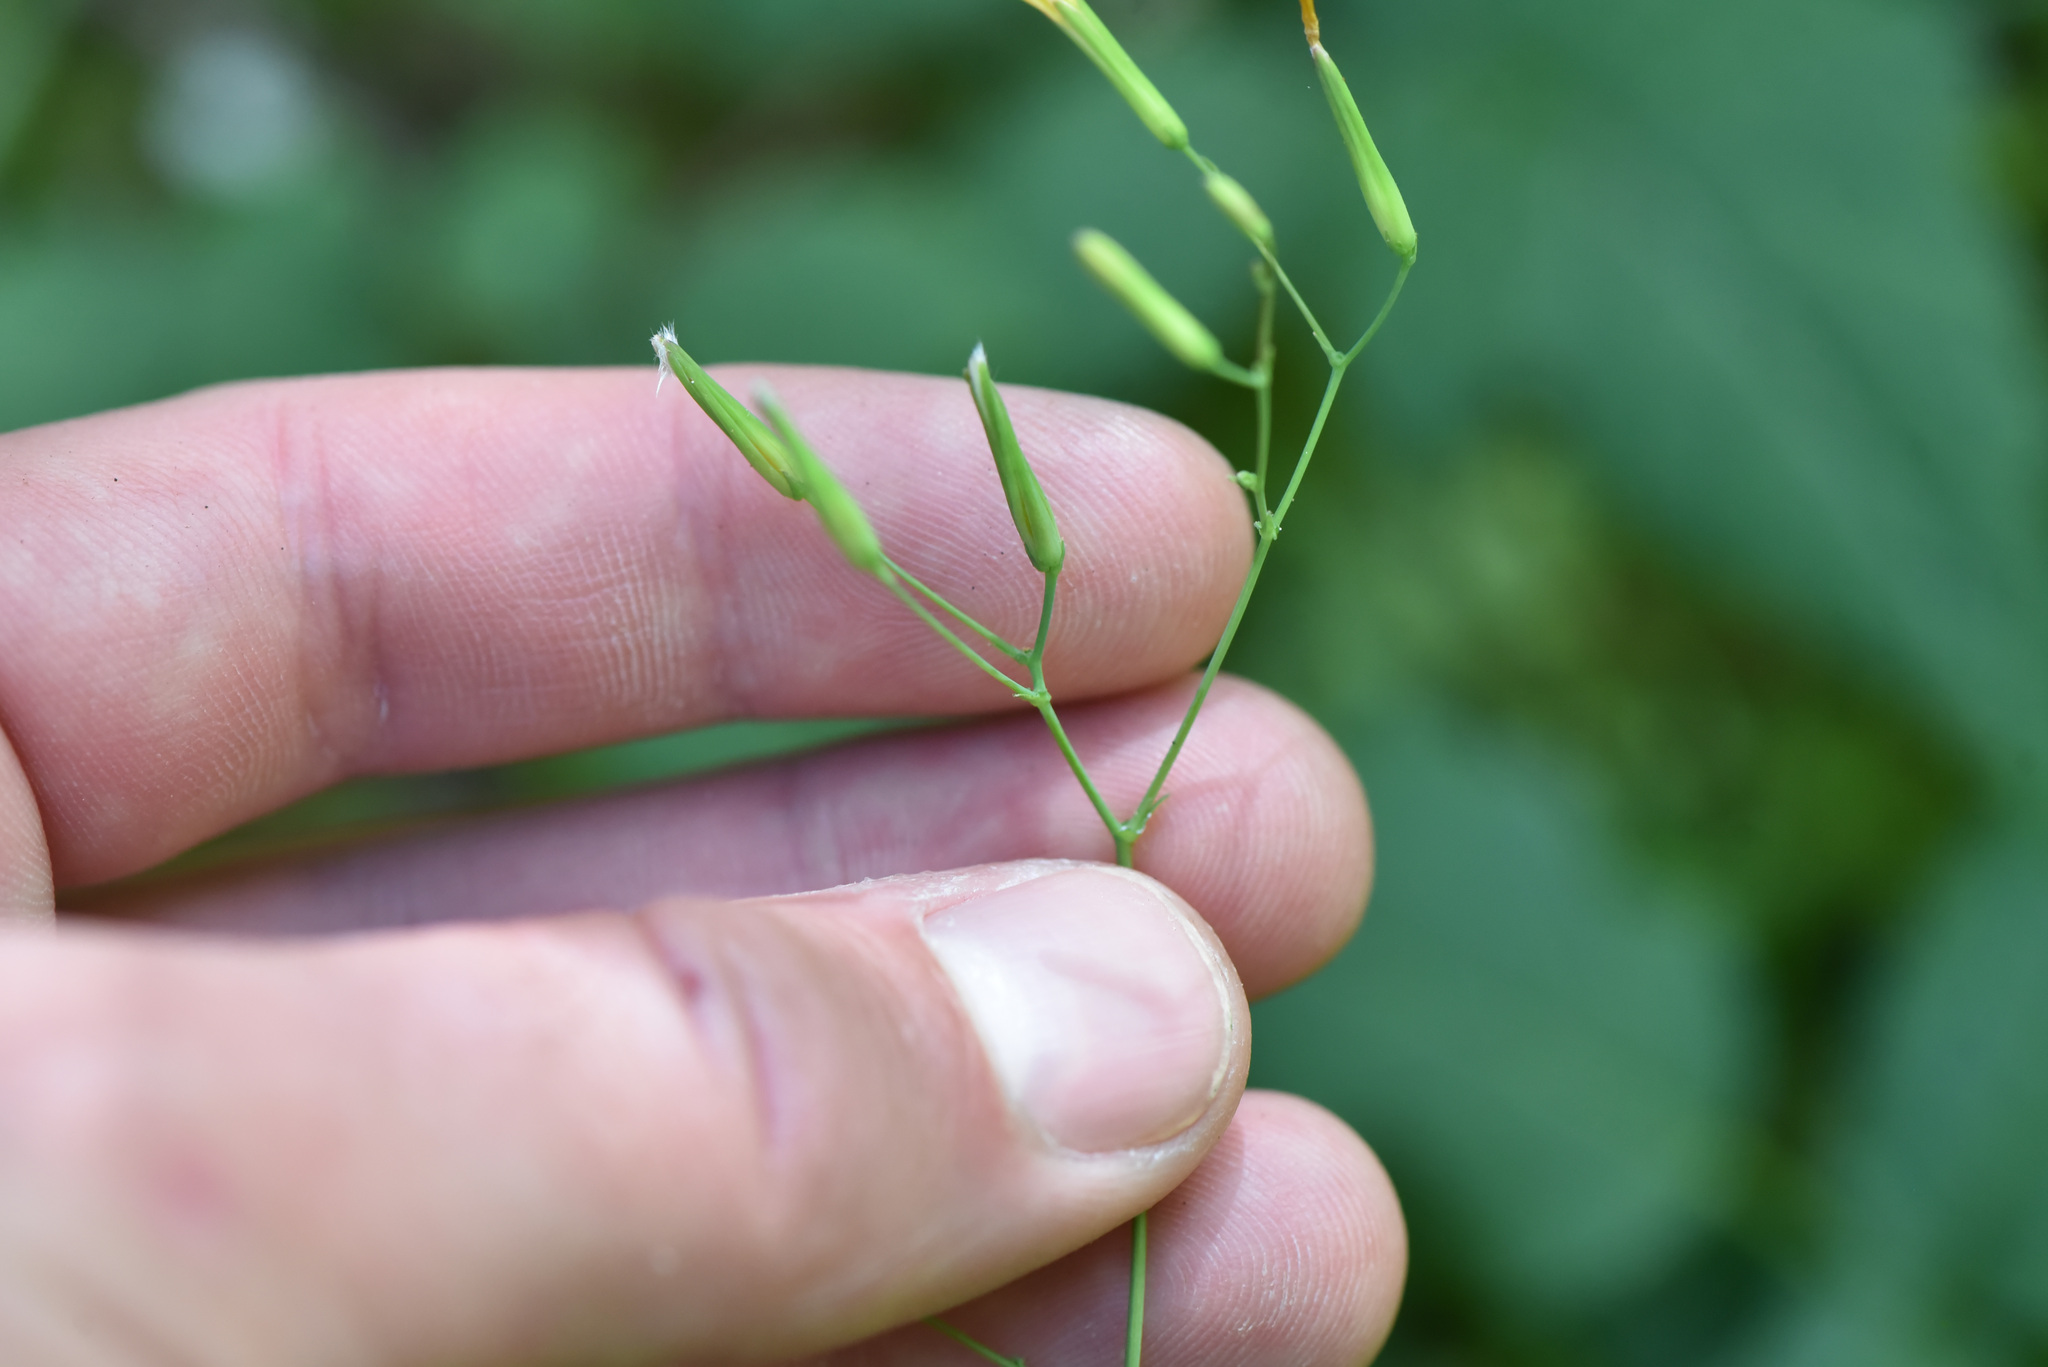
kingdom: Plantae
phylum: Tracheophyta
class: Magnoliopsida
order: Asterales
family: Asteraceae
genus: Mycelis
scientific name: Mycelis muralis
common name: Wall lettuce
